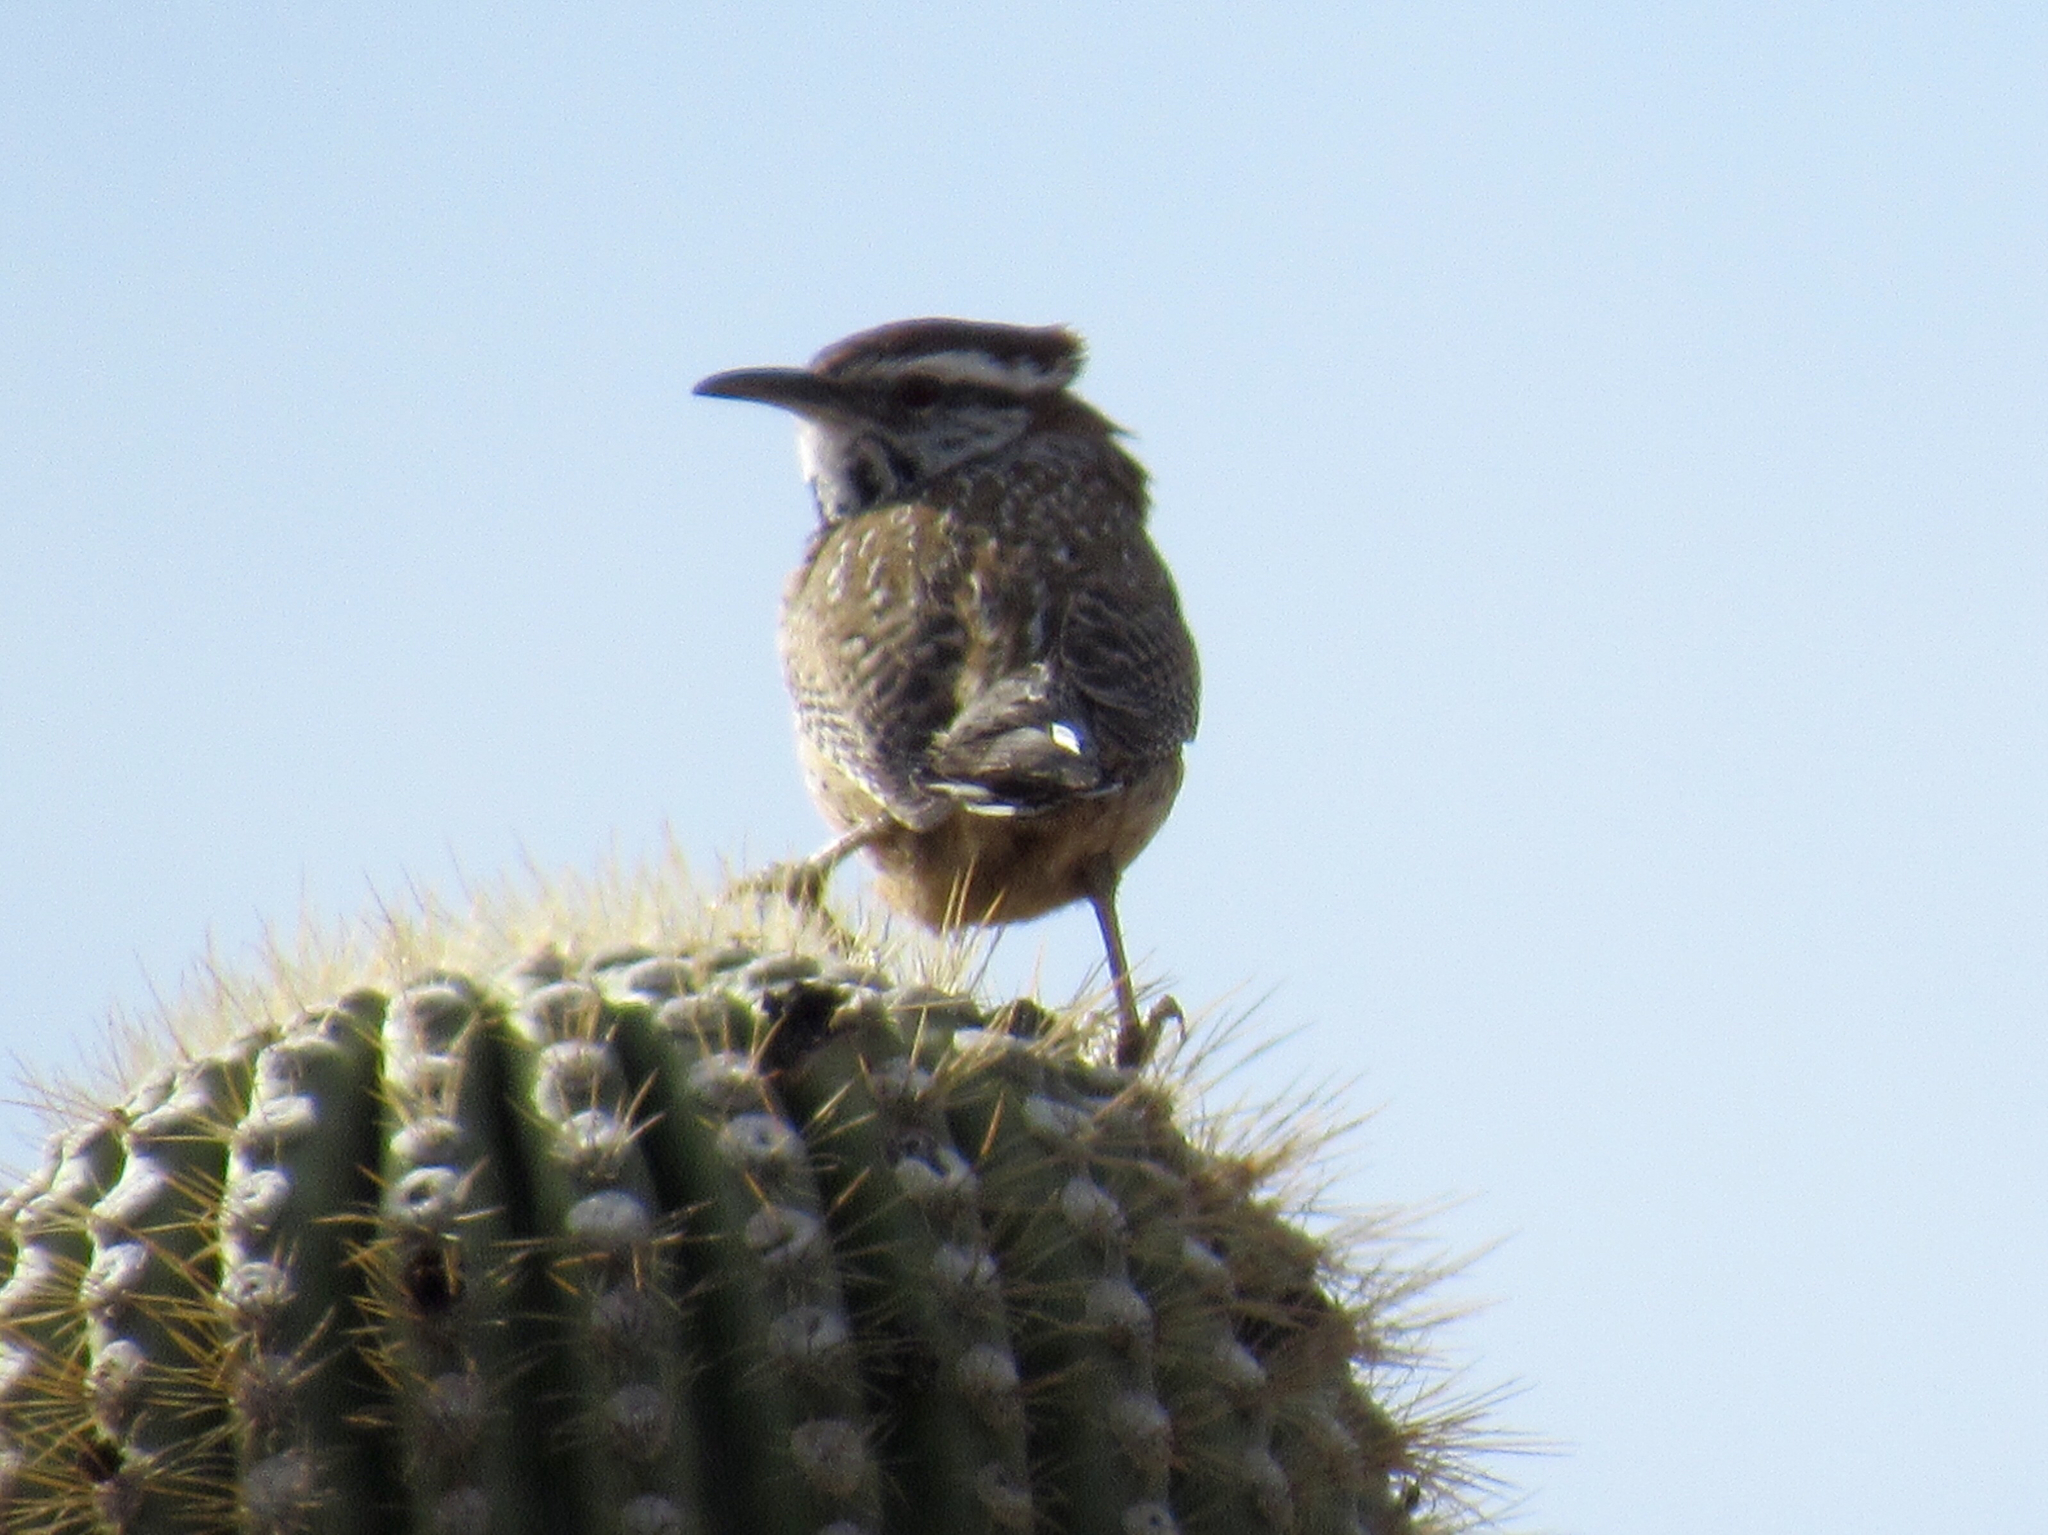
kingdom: Animalia
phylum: Chordata
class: Aves
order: Passeriformes
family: Troglodytidae
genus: Campylorhynchus
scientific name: Campylorhynchus brunneicapillus
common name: Cactus wren
